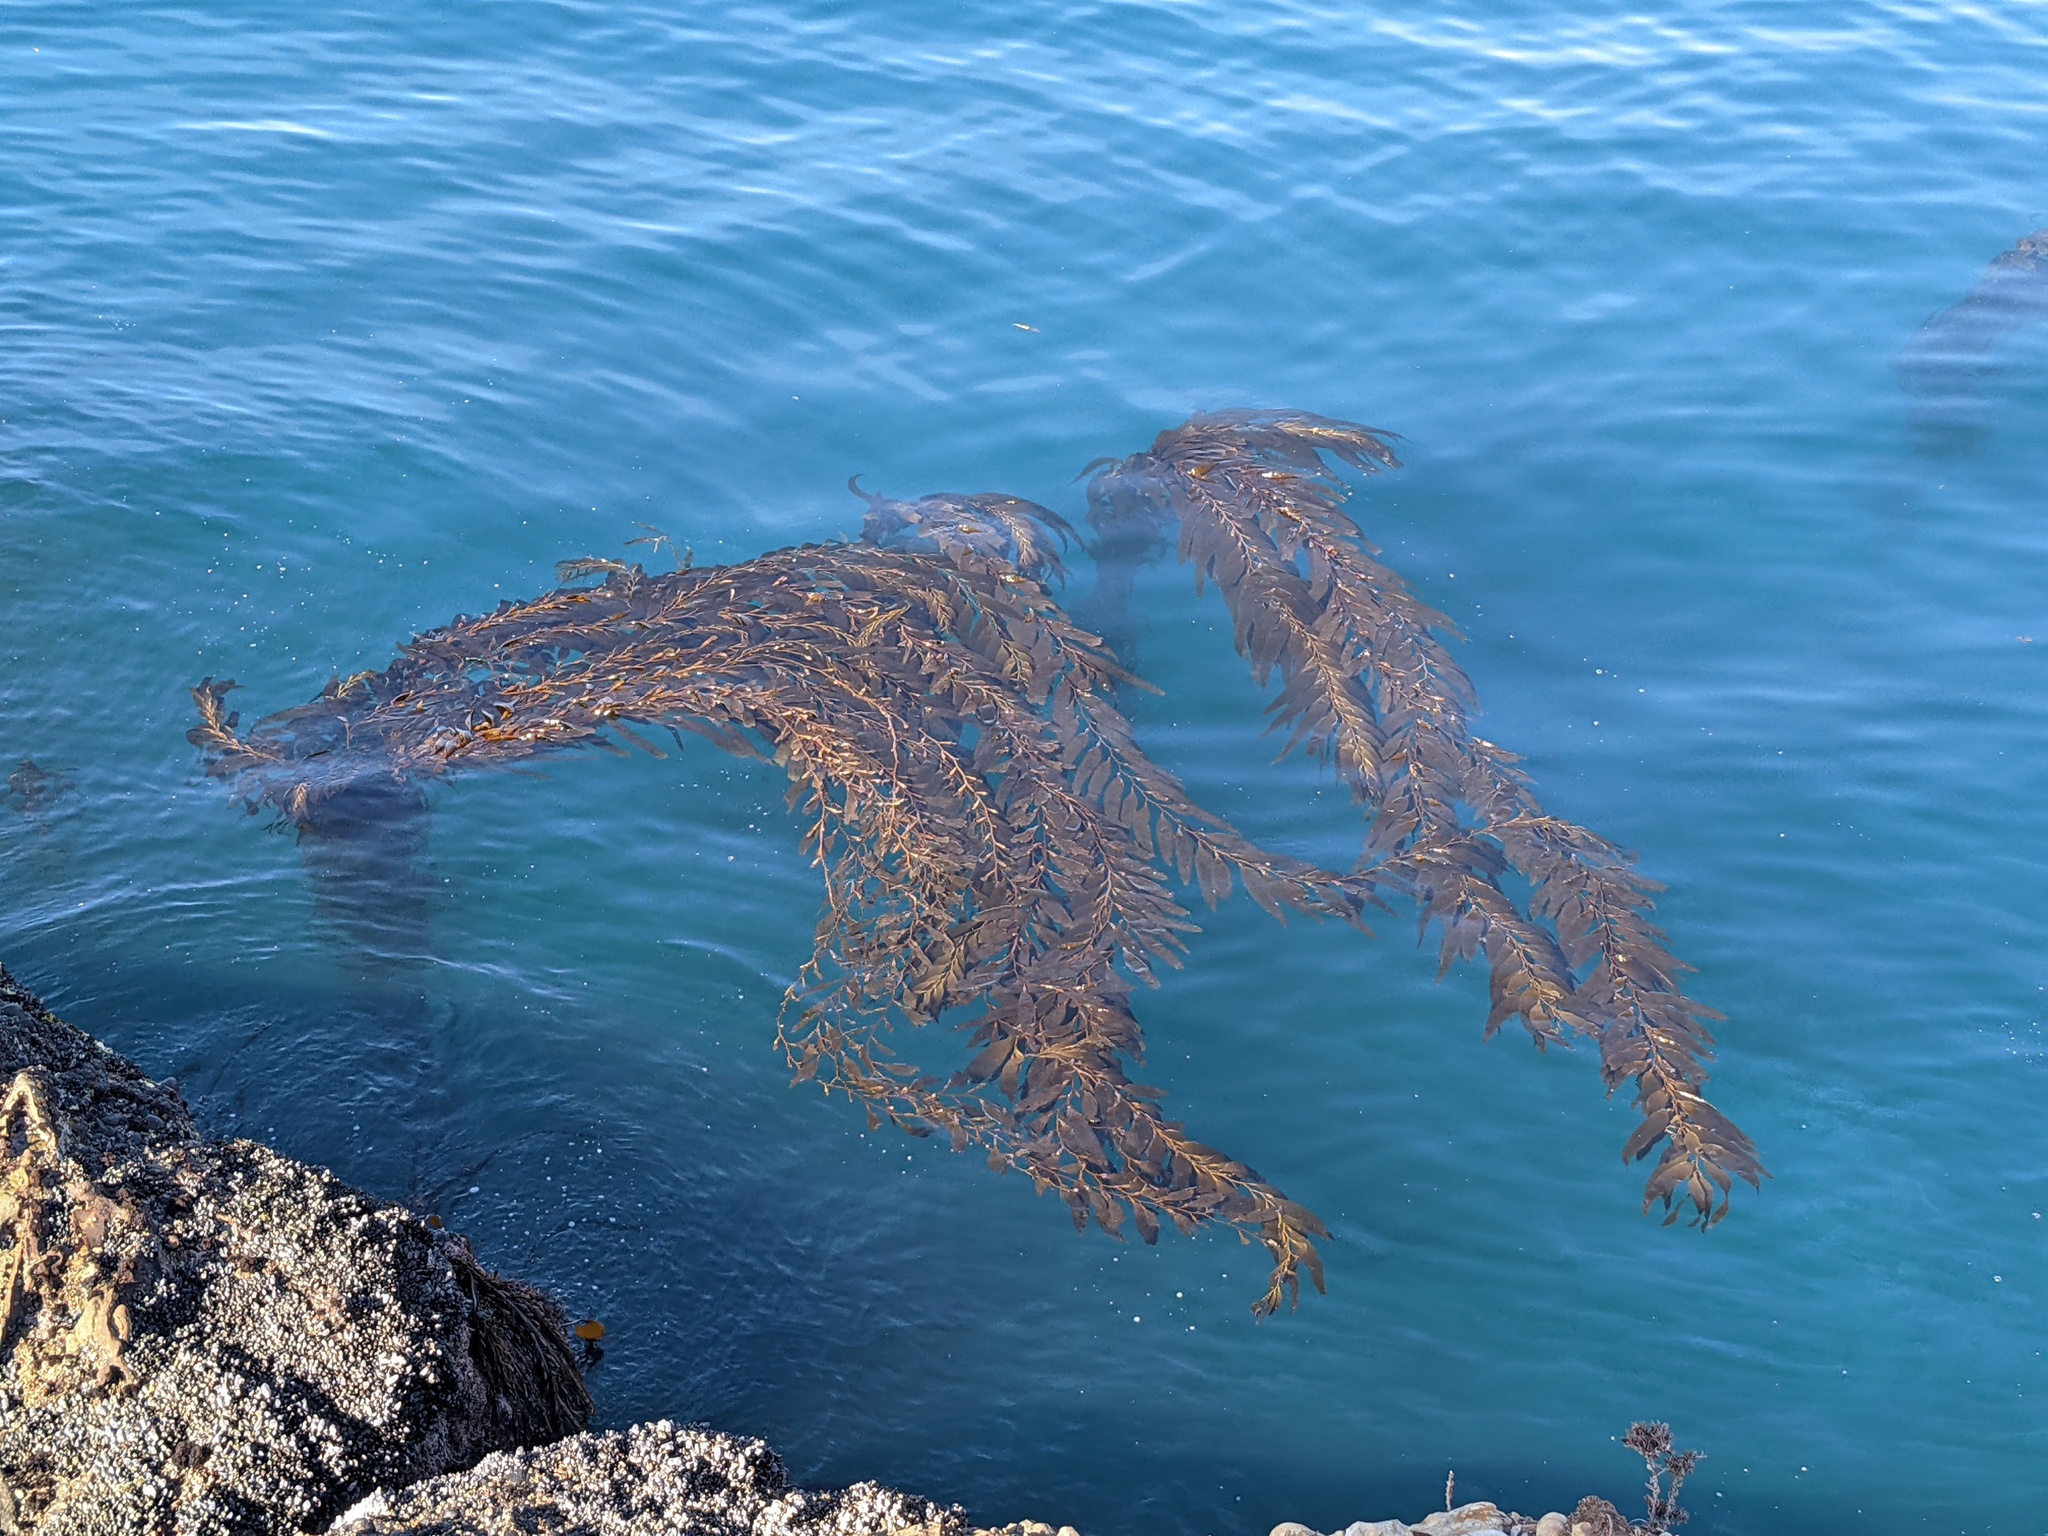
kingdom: Chromista
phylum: Ochrophyta
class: Phaeophyceae
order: Laminariales
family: Laminariaceae
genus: Macrocystis
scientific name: Macrocystis pyrifera
